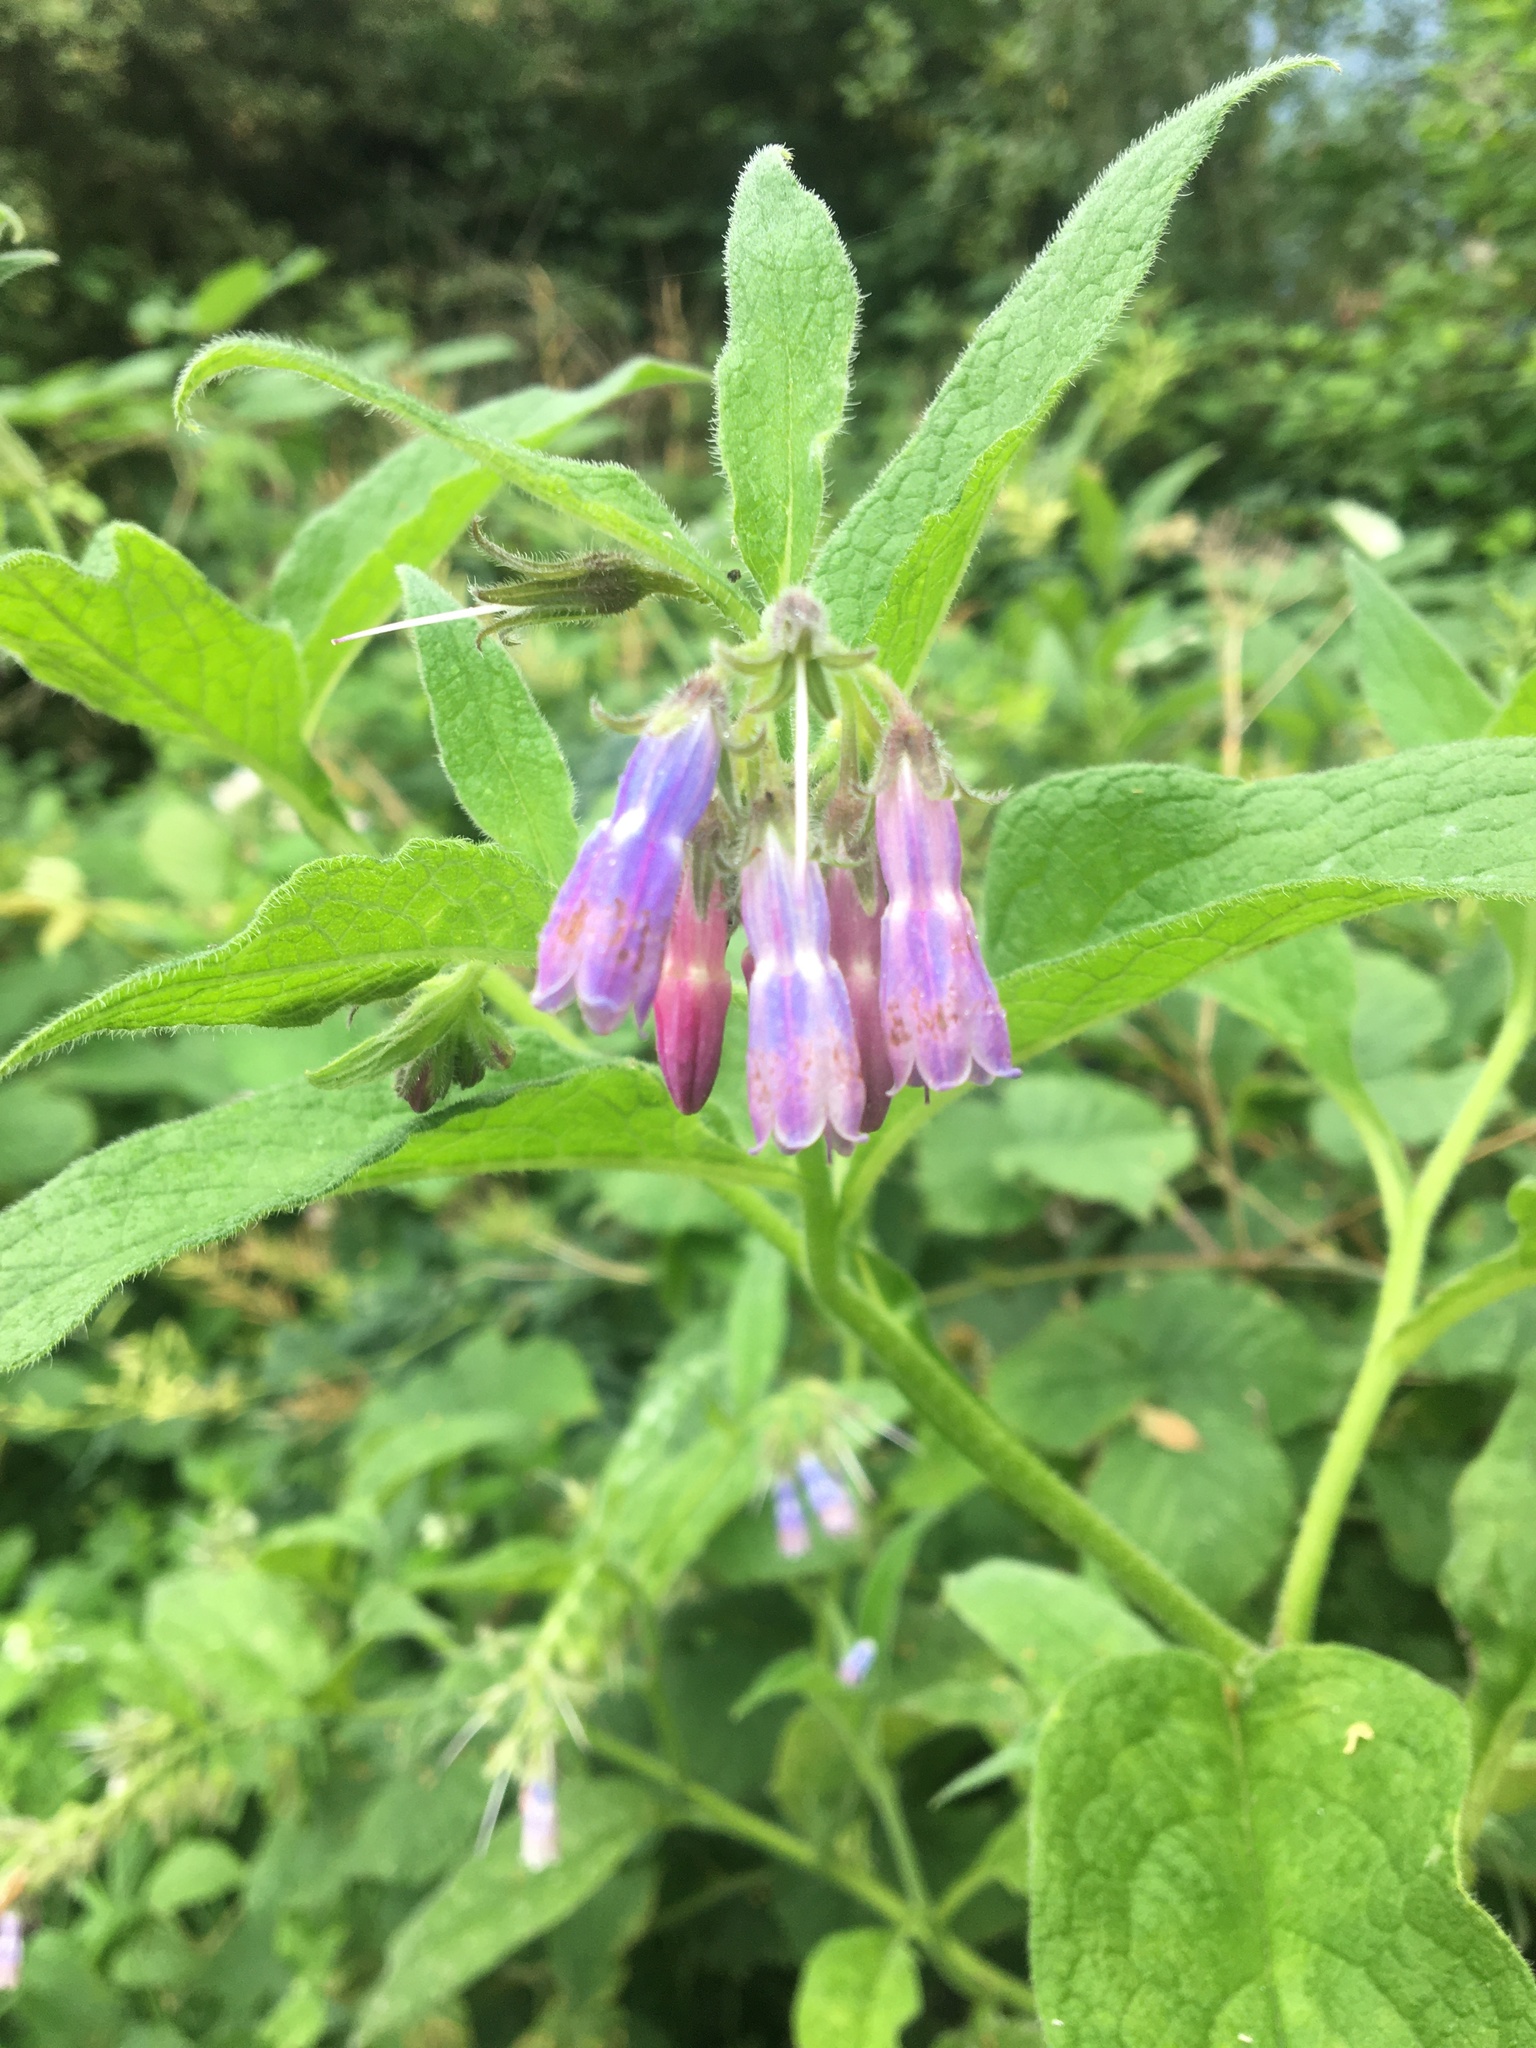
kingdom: Plantae
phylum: Tracheophyta
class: Magnoliopsida
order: Boraginales
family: Boraginaceae
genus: Symphytum
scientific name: Symphytum uplandicum
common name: Russian comfrey
